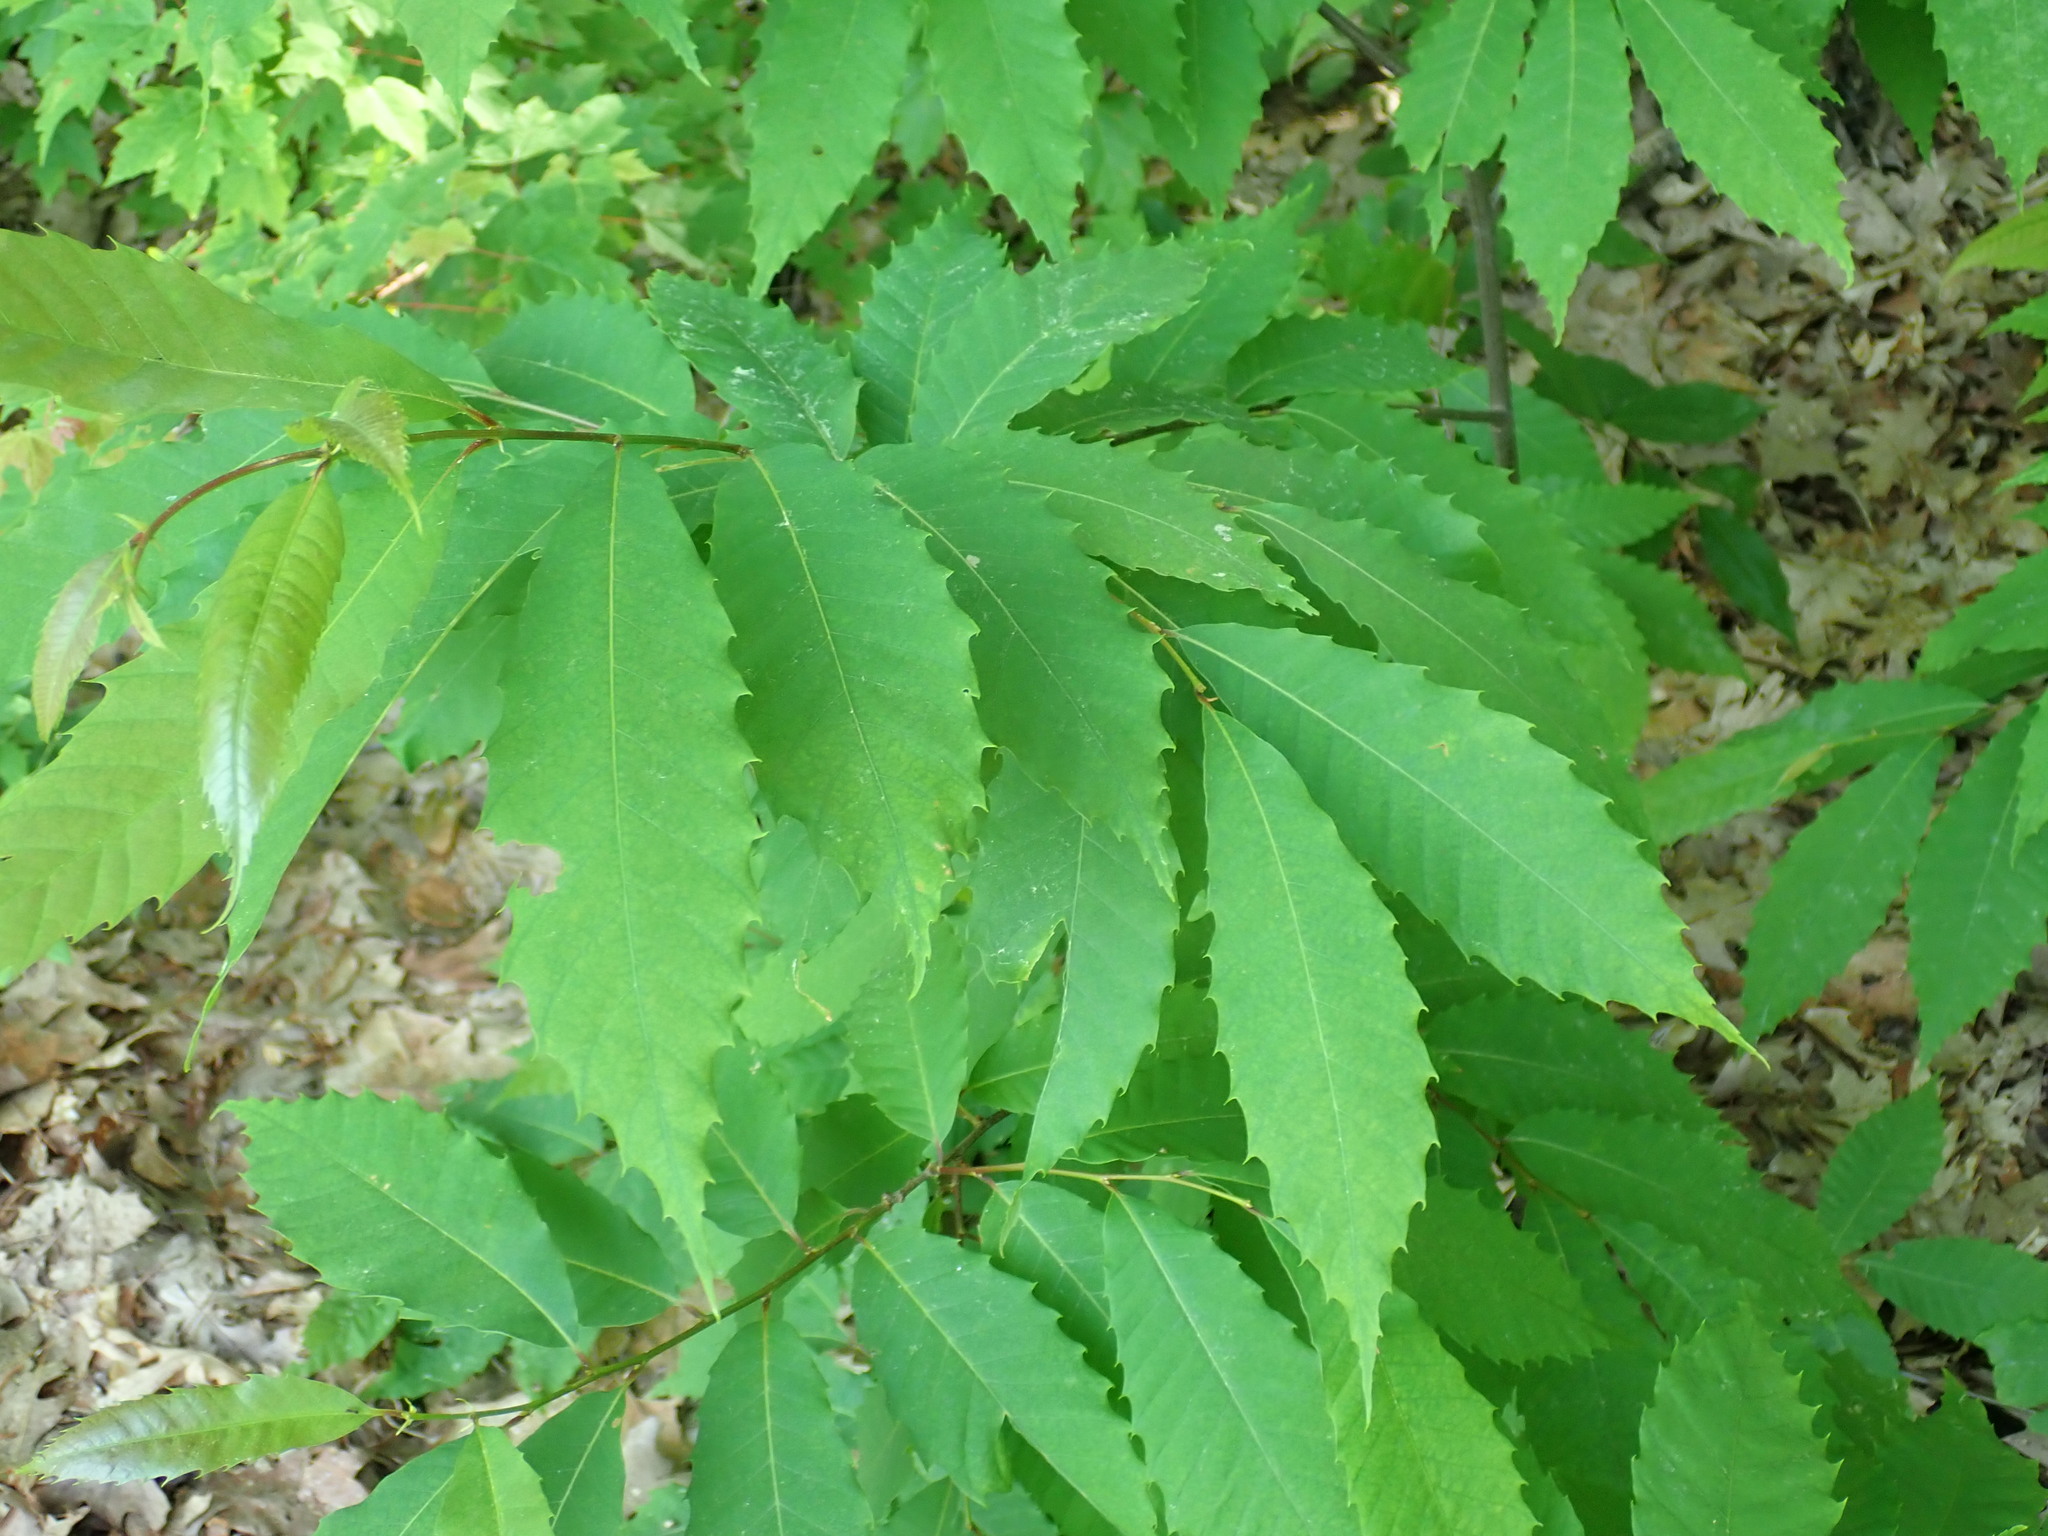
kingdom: Plantae
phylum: Tracheophyta
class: Magnoliopsida
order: Fagales
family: Fagaceae
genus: Castanea
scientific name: Castanea dentata
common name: American chestnut
